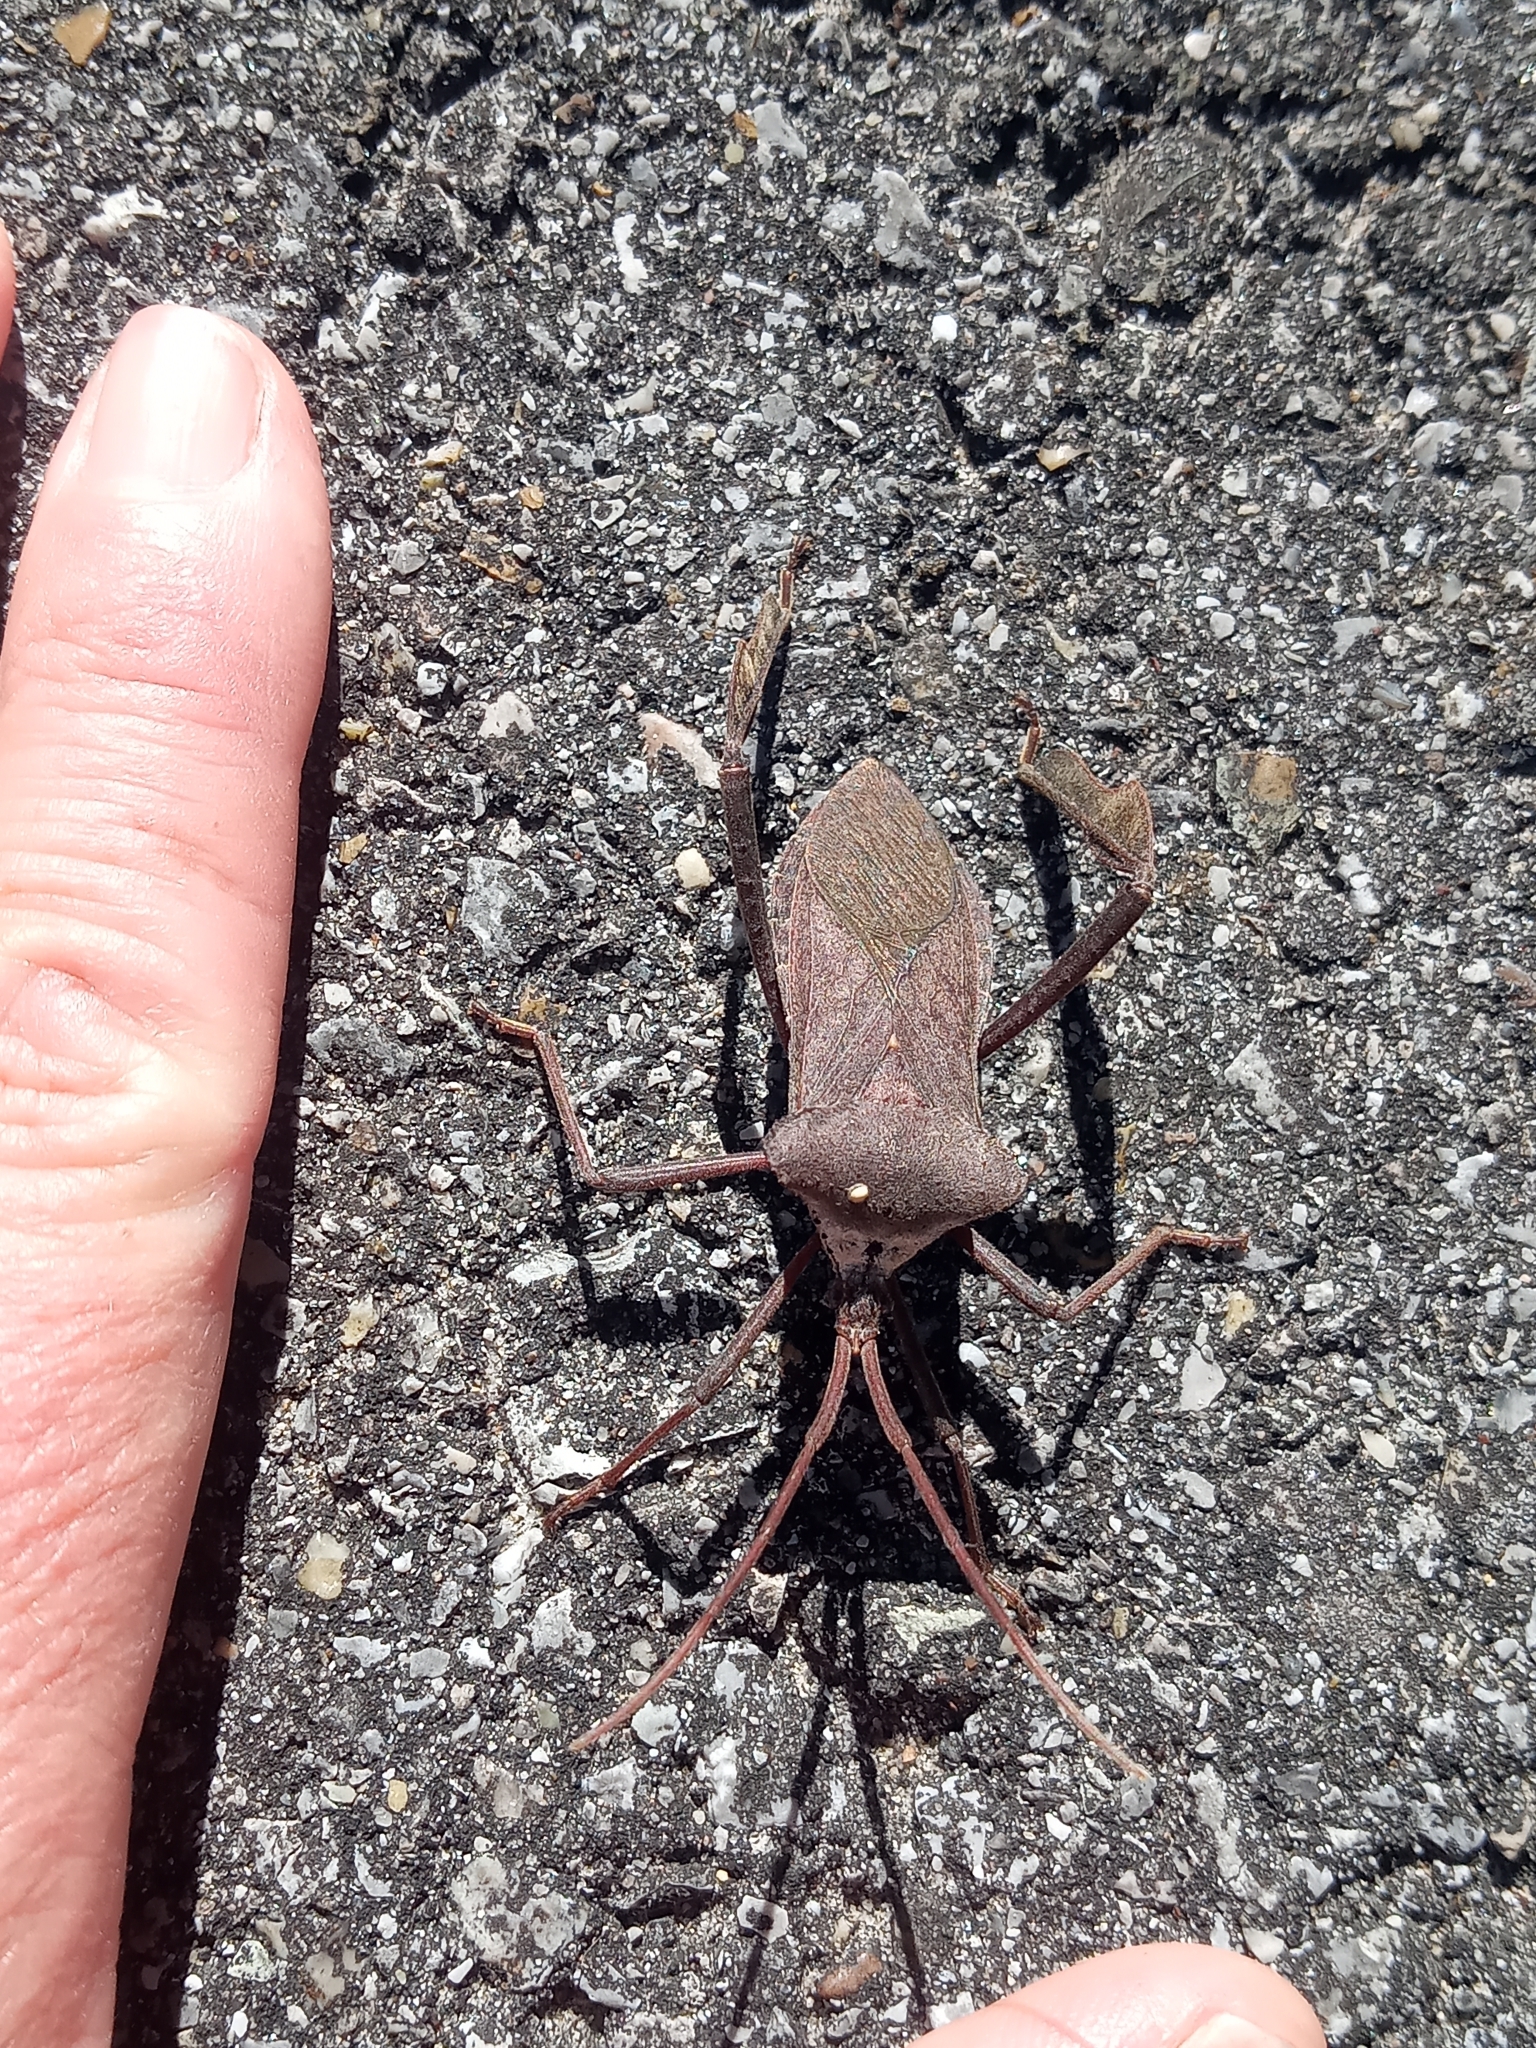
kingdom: Animalia
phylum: Arthropoda
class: Insecta
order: Hemiptera
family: Coreidae
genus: Acanthocephala
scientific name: Acanthocephala declivis
